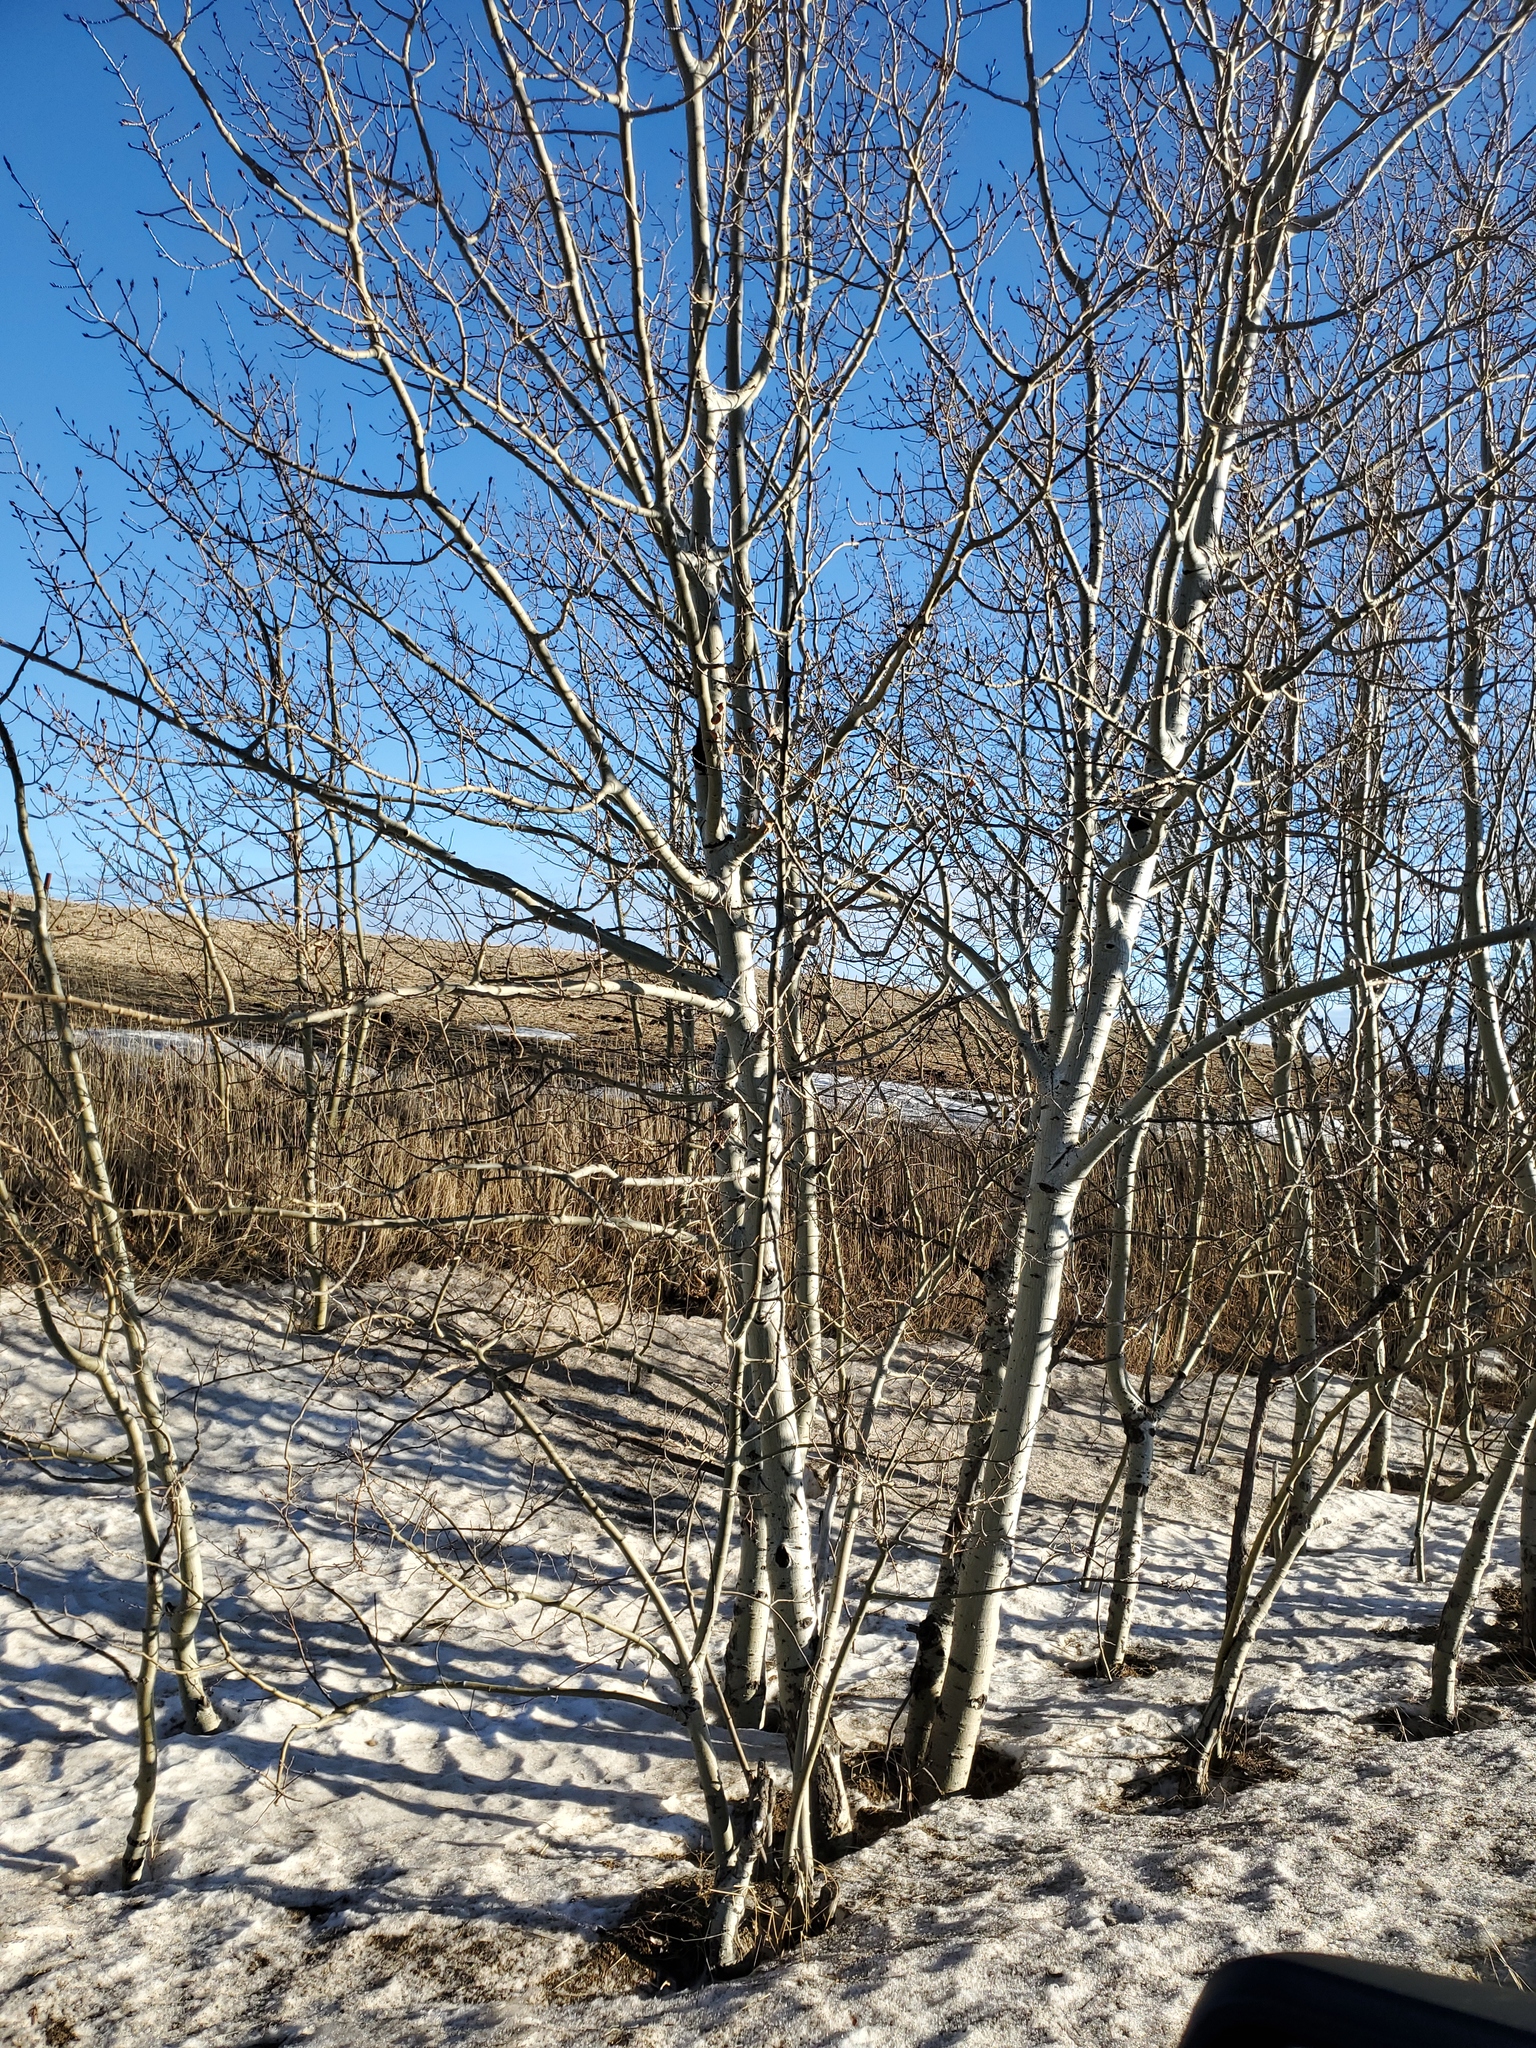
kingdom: Plantae
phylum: Tracheophyta
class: Magnoliopsida
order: Malpighiales
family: Salicaceae
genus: Populus
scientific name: Populus tremuloides
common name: Quaking aspen
